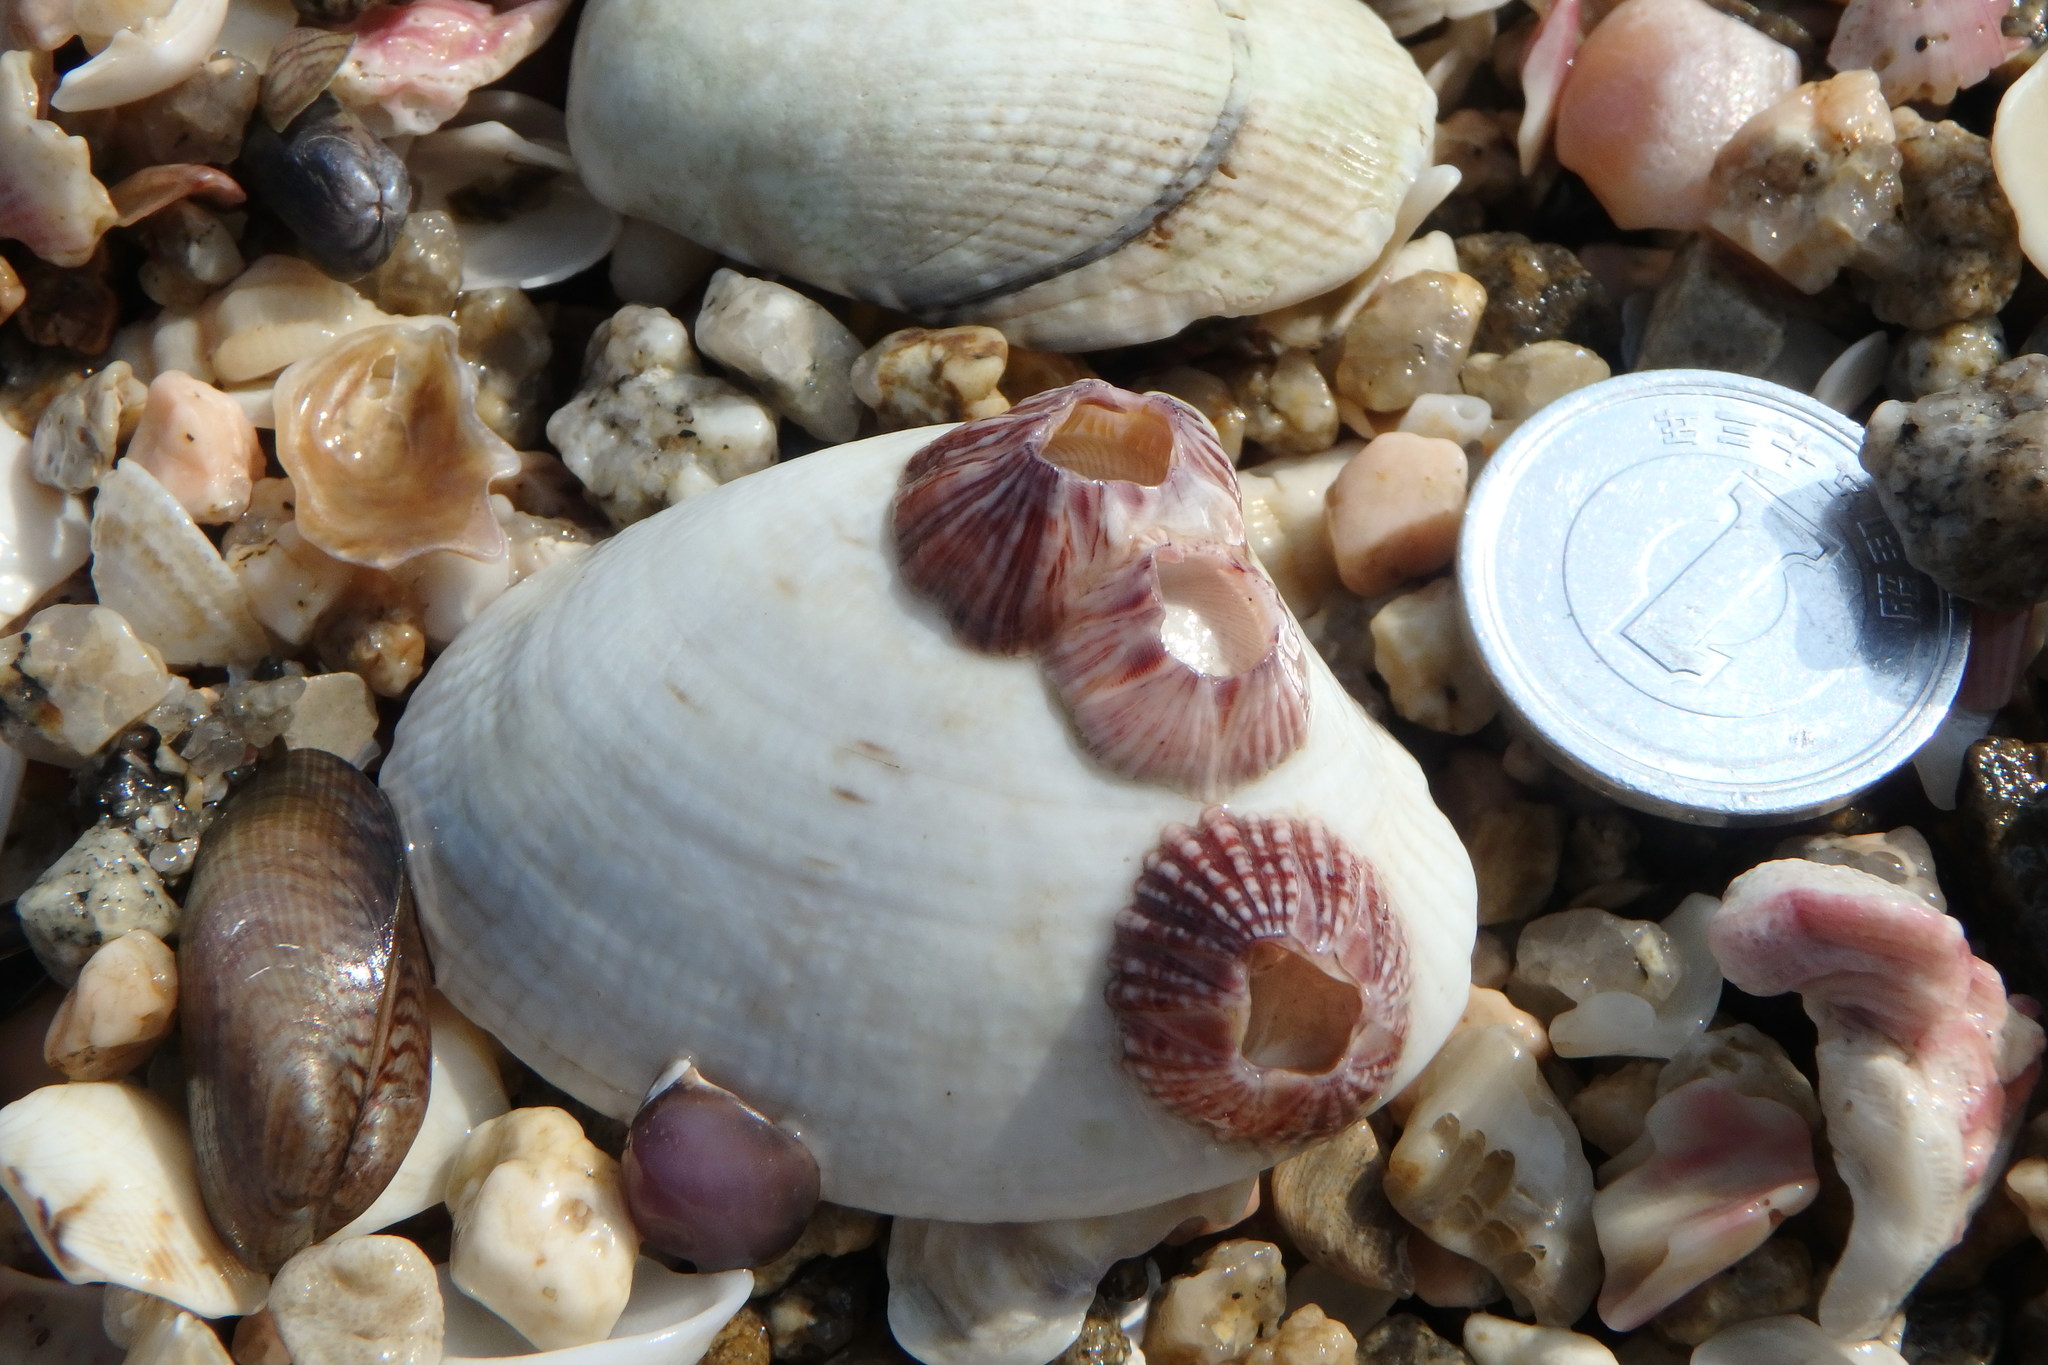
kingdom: Animalia
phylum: Arthropoda
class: Maxillopoda
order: Sessilia
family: Balanidae
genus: Balanus
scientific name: Balanus trigonus
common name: Triangle barnacle
